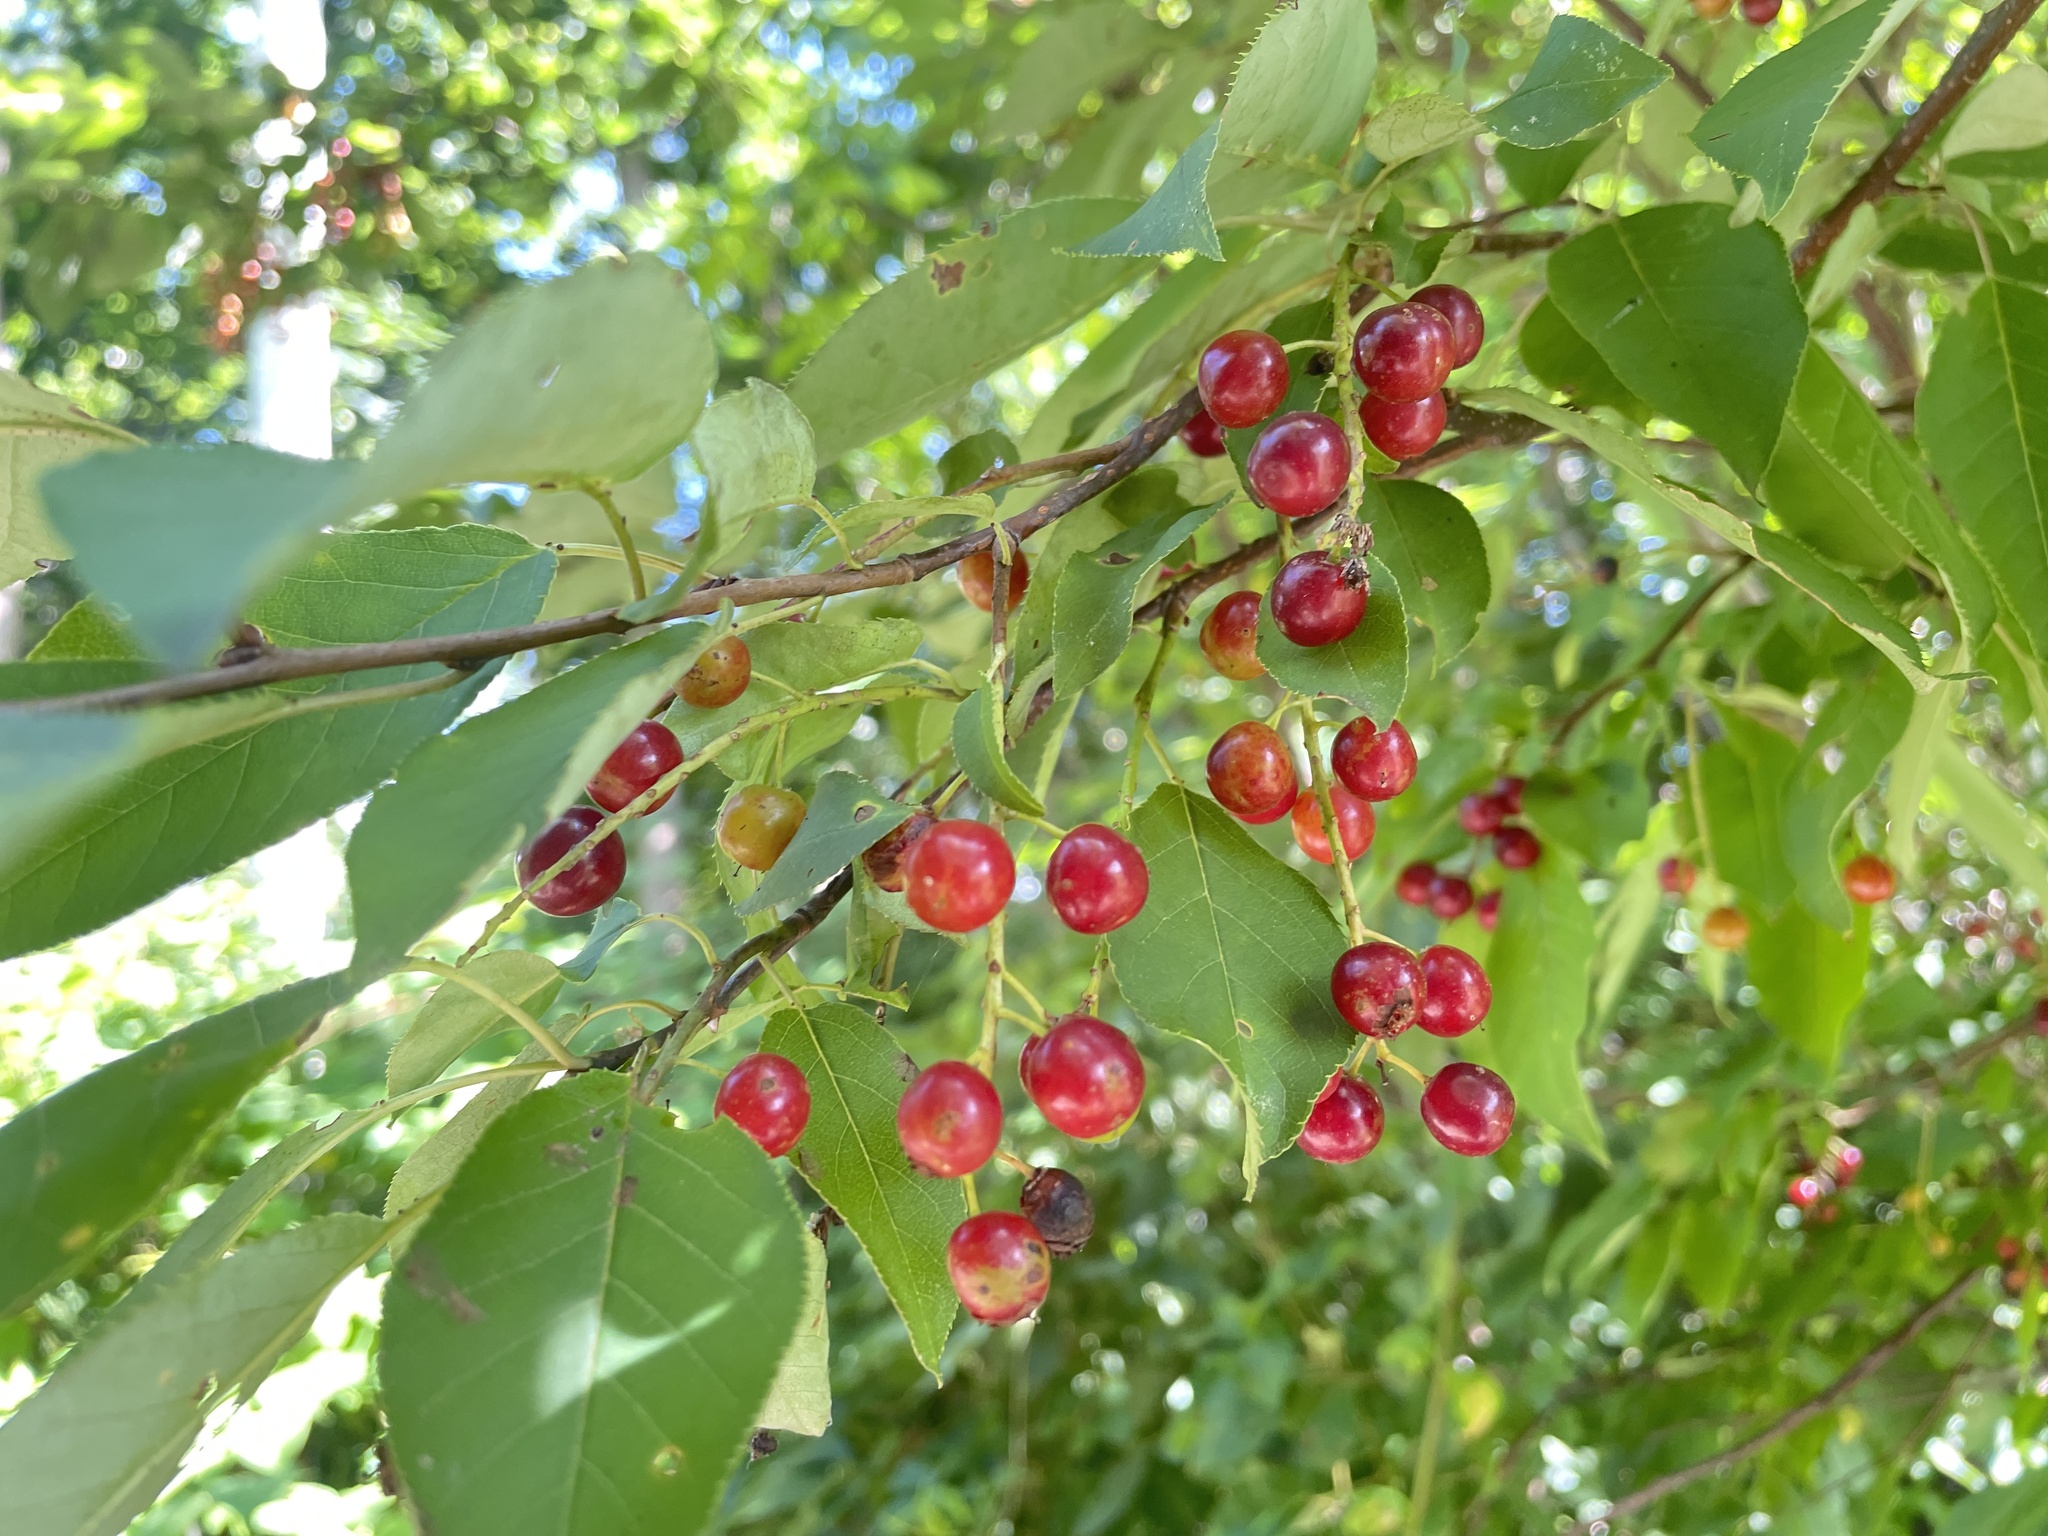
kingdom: Plantae
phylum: Tracheophyta
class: Magnoliopsida
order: Rosales
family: Rosaceae
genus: Prunus
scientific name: Prunus virginiana
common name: Chokecherry
